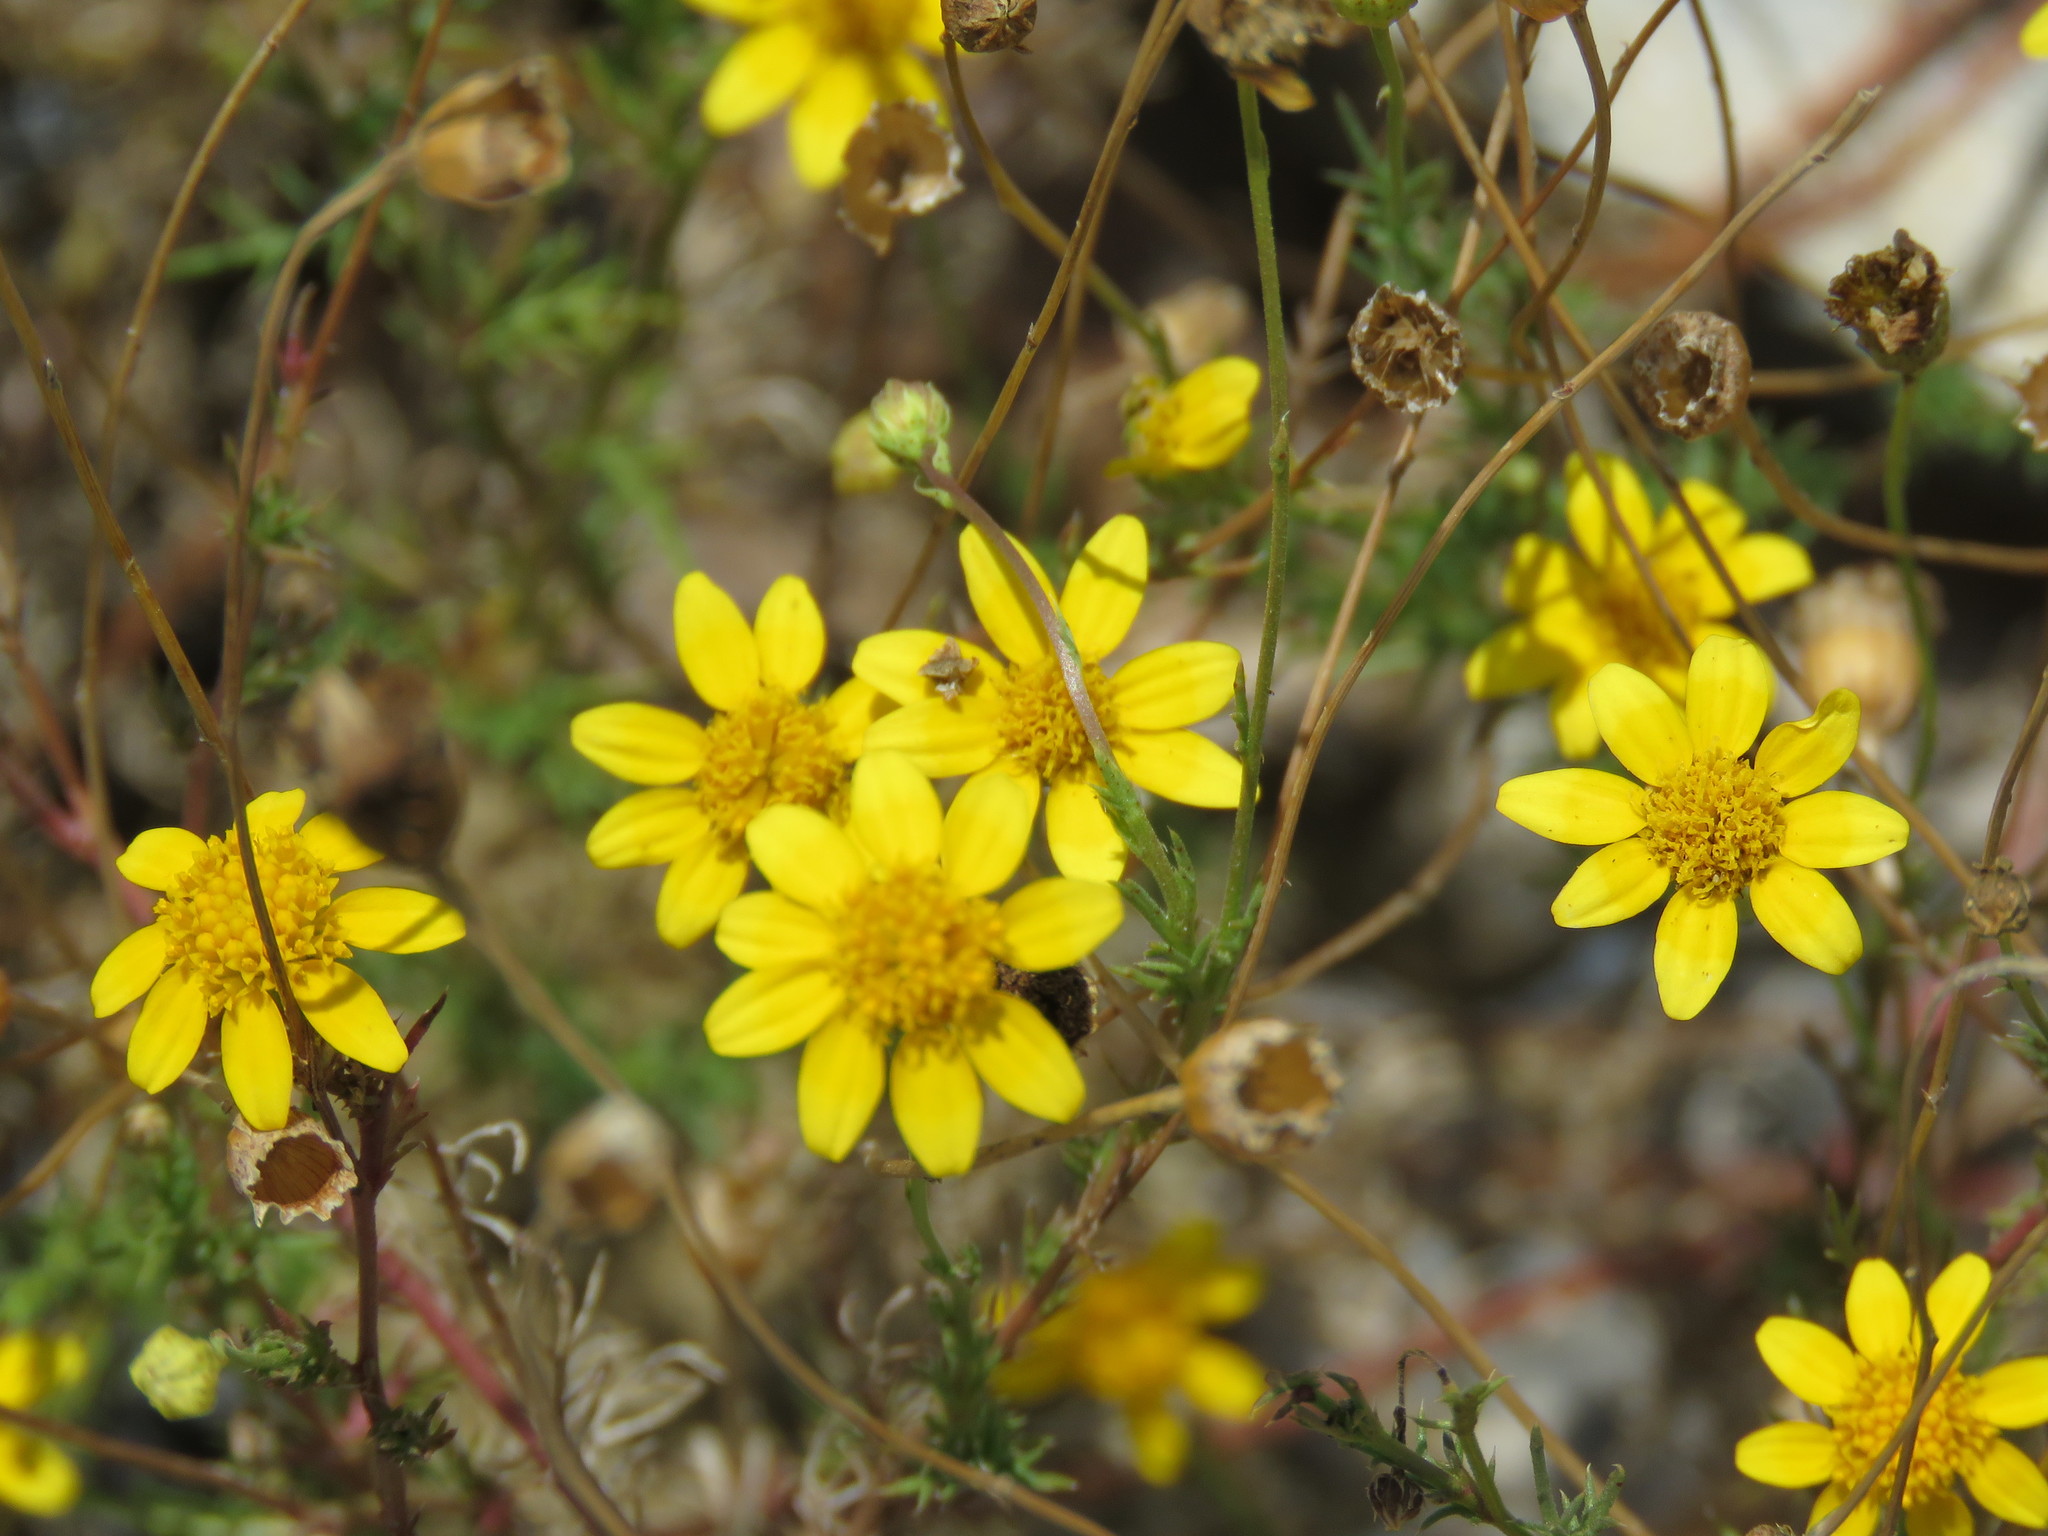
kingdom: Plantae
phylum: Tracheophyta
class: Magnoliopsida
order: Asterales
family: Asteraceae
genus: Thymophylla
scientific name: Thymophylla pentachaeta
